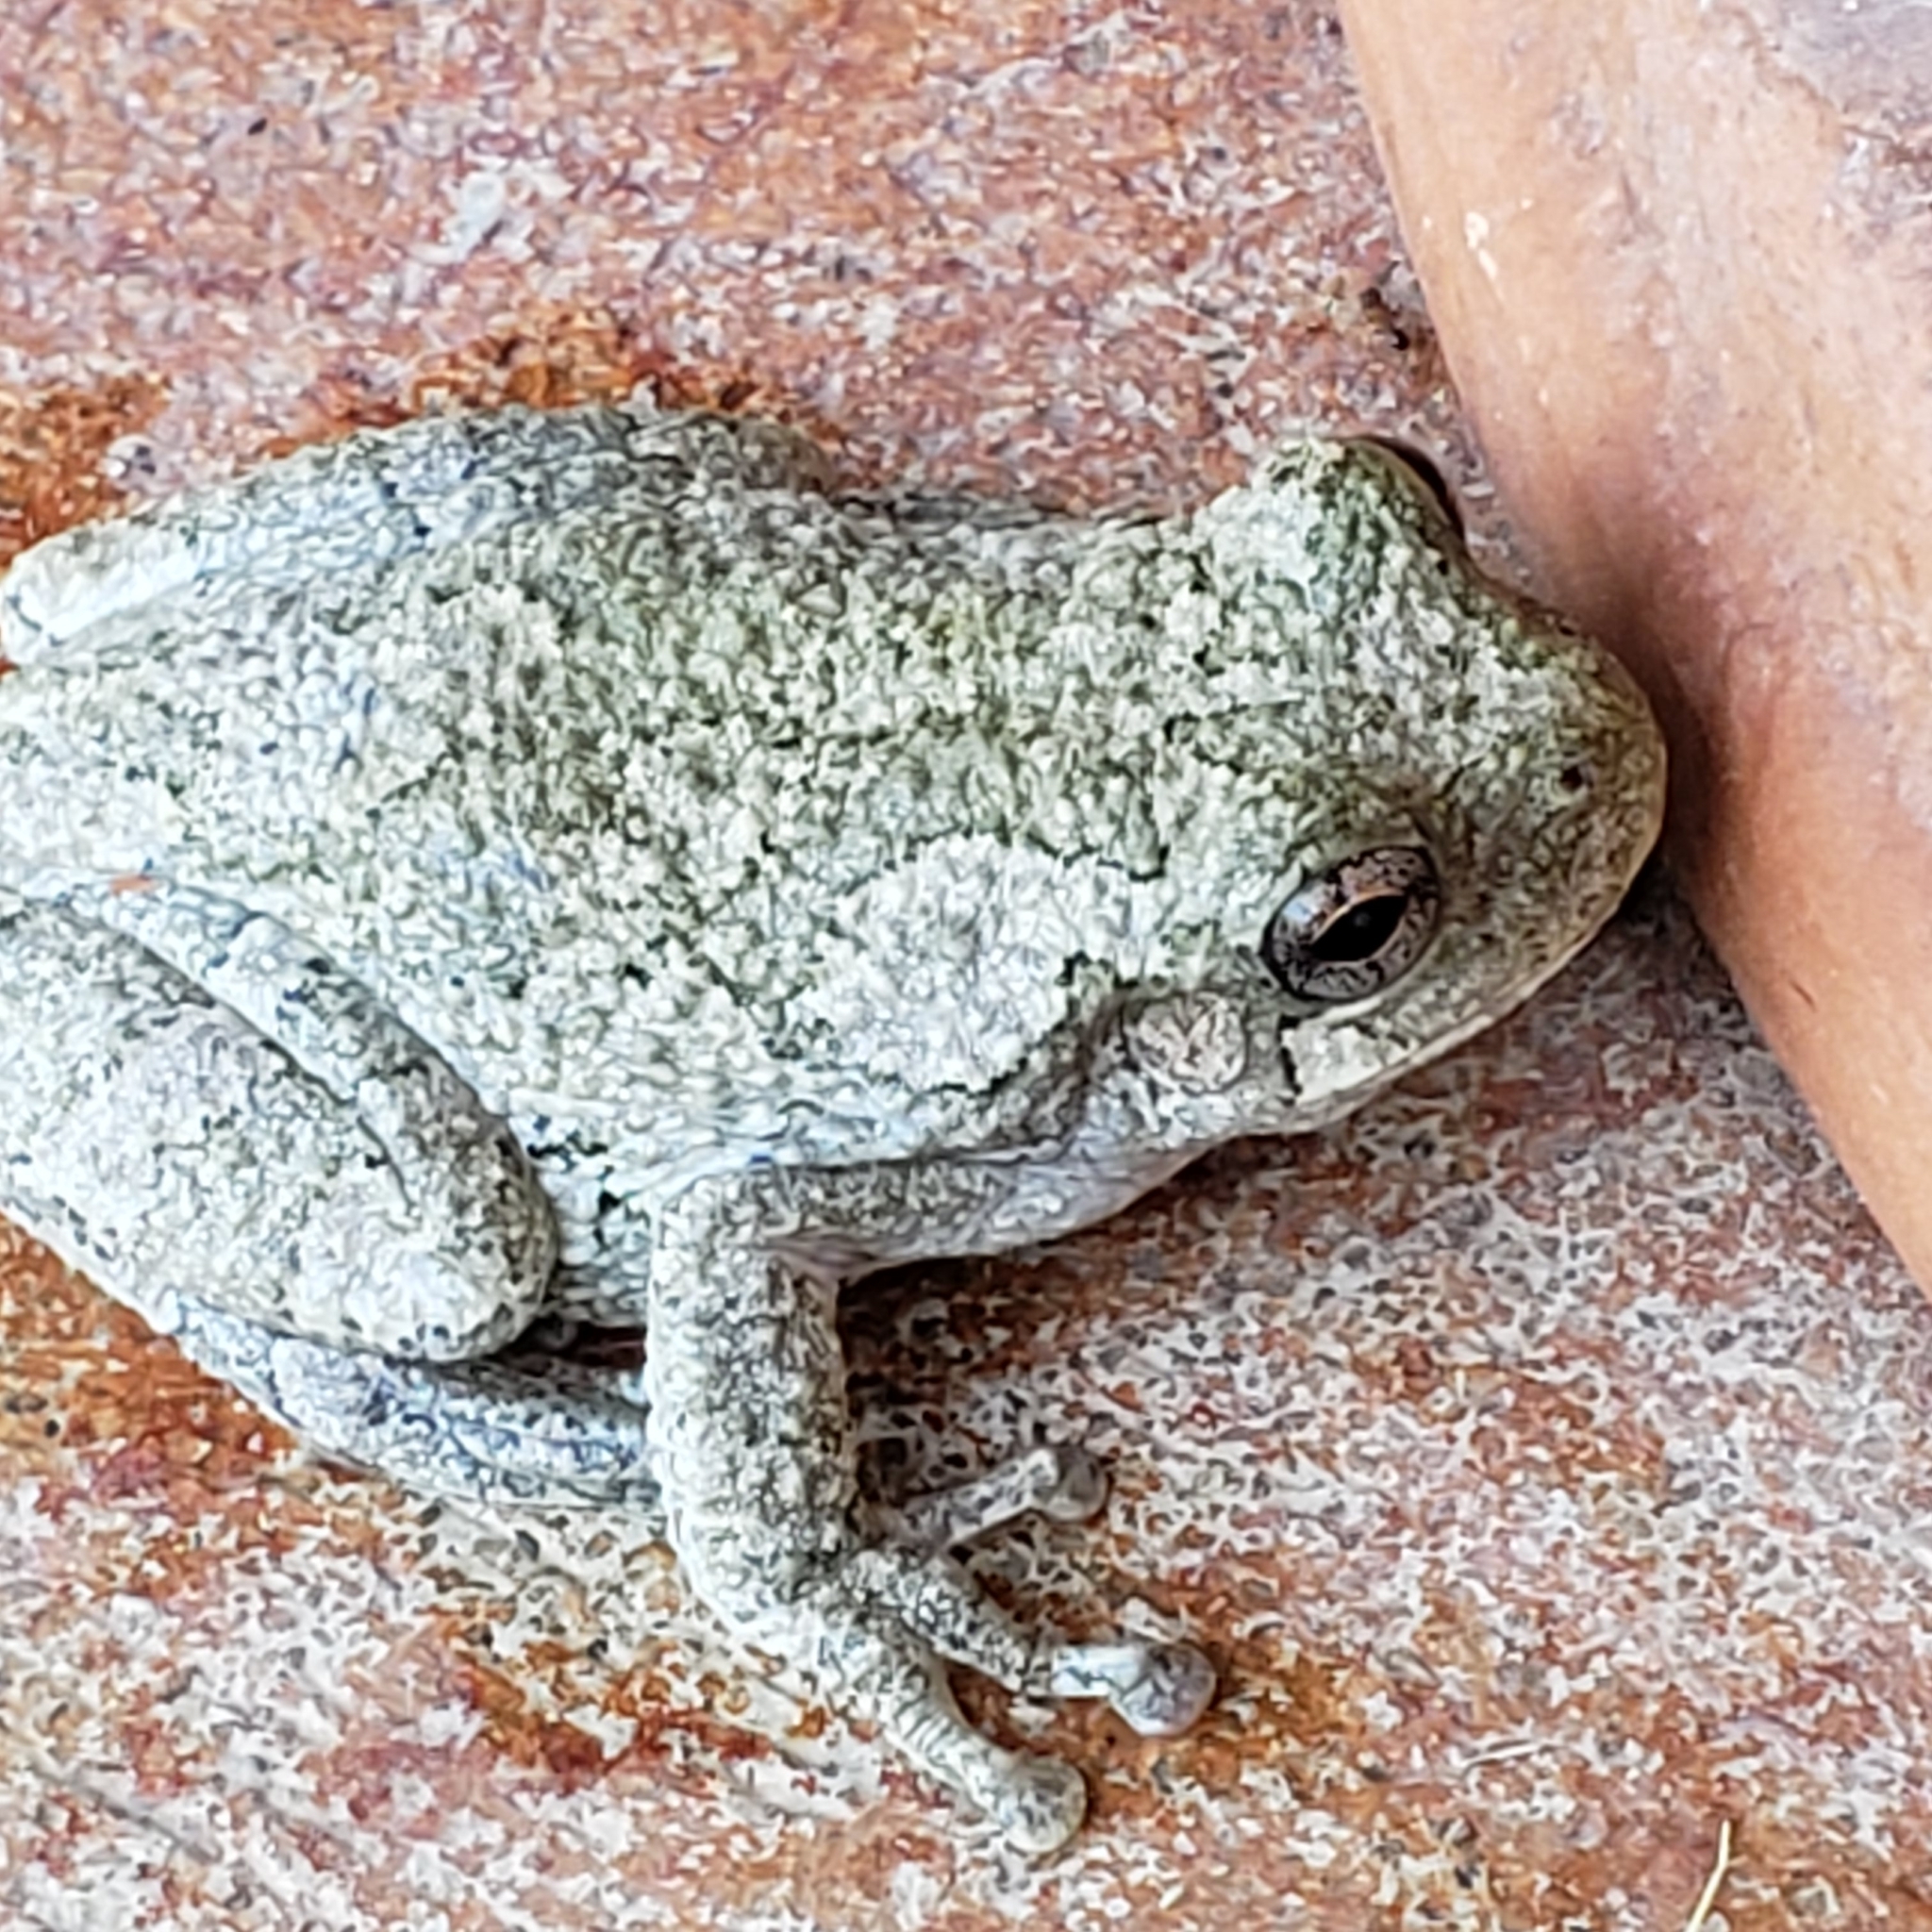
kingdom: Animalia
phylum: Chordata
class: Amphibia
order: Anura
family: Hylidae
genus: Dryophytes
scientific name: Dryophytes versicolor
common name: Gray treefrog
